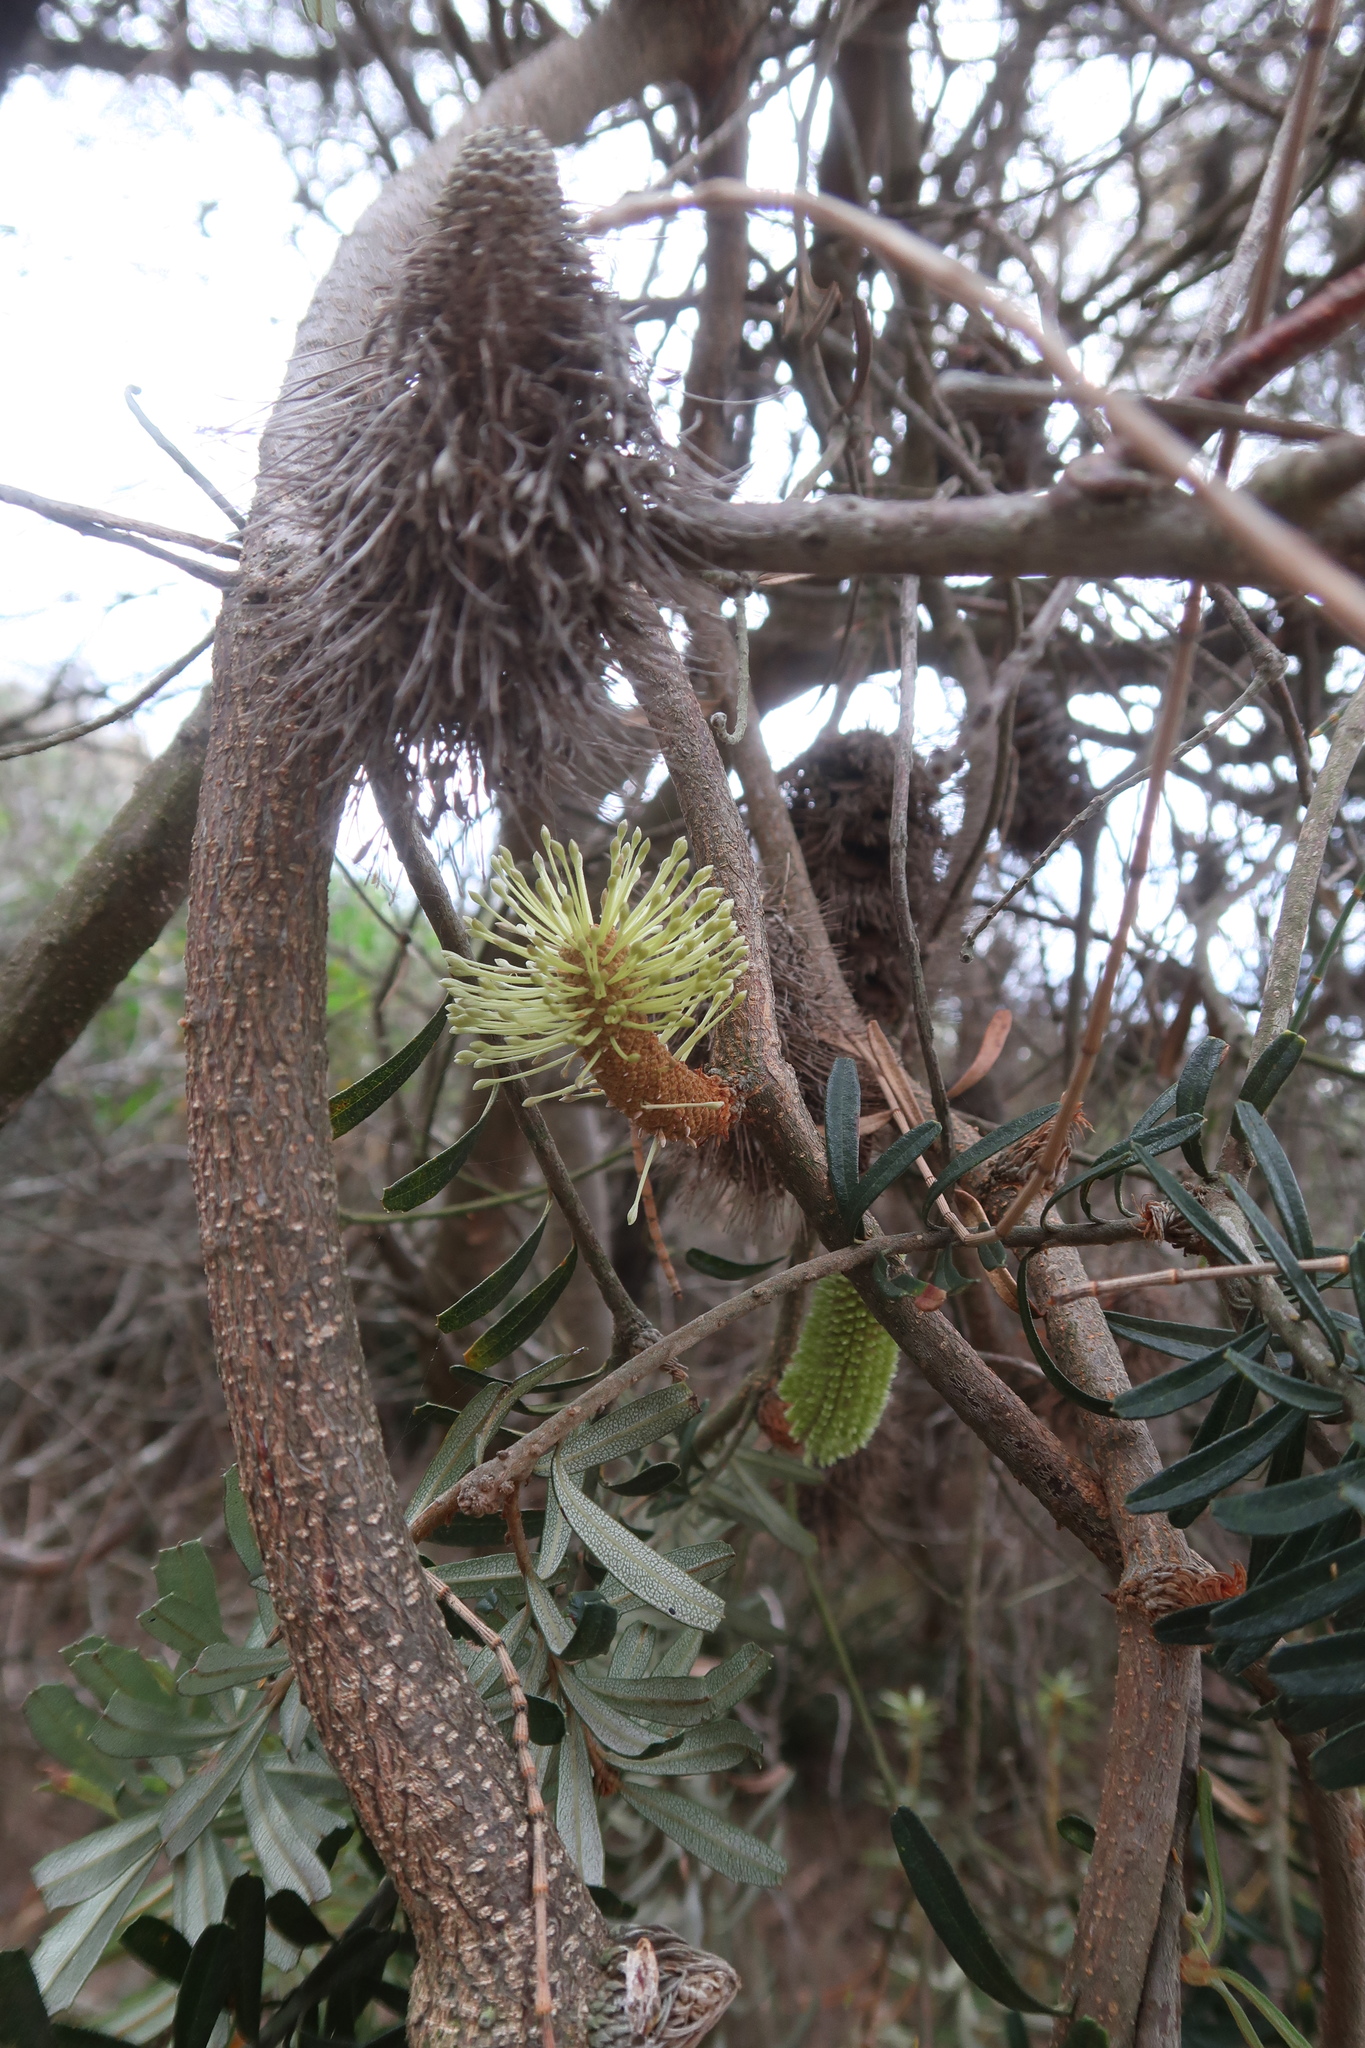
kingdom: Plantae
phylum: Tracheophyta
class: Magnoliopsida
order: Proteales
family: Proteaceae
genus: Banksia
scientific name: Banksia marginata
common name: Silver banksia
